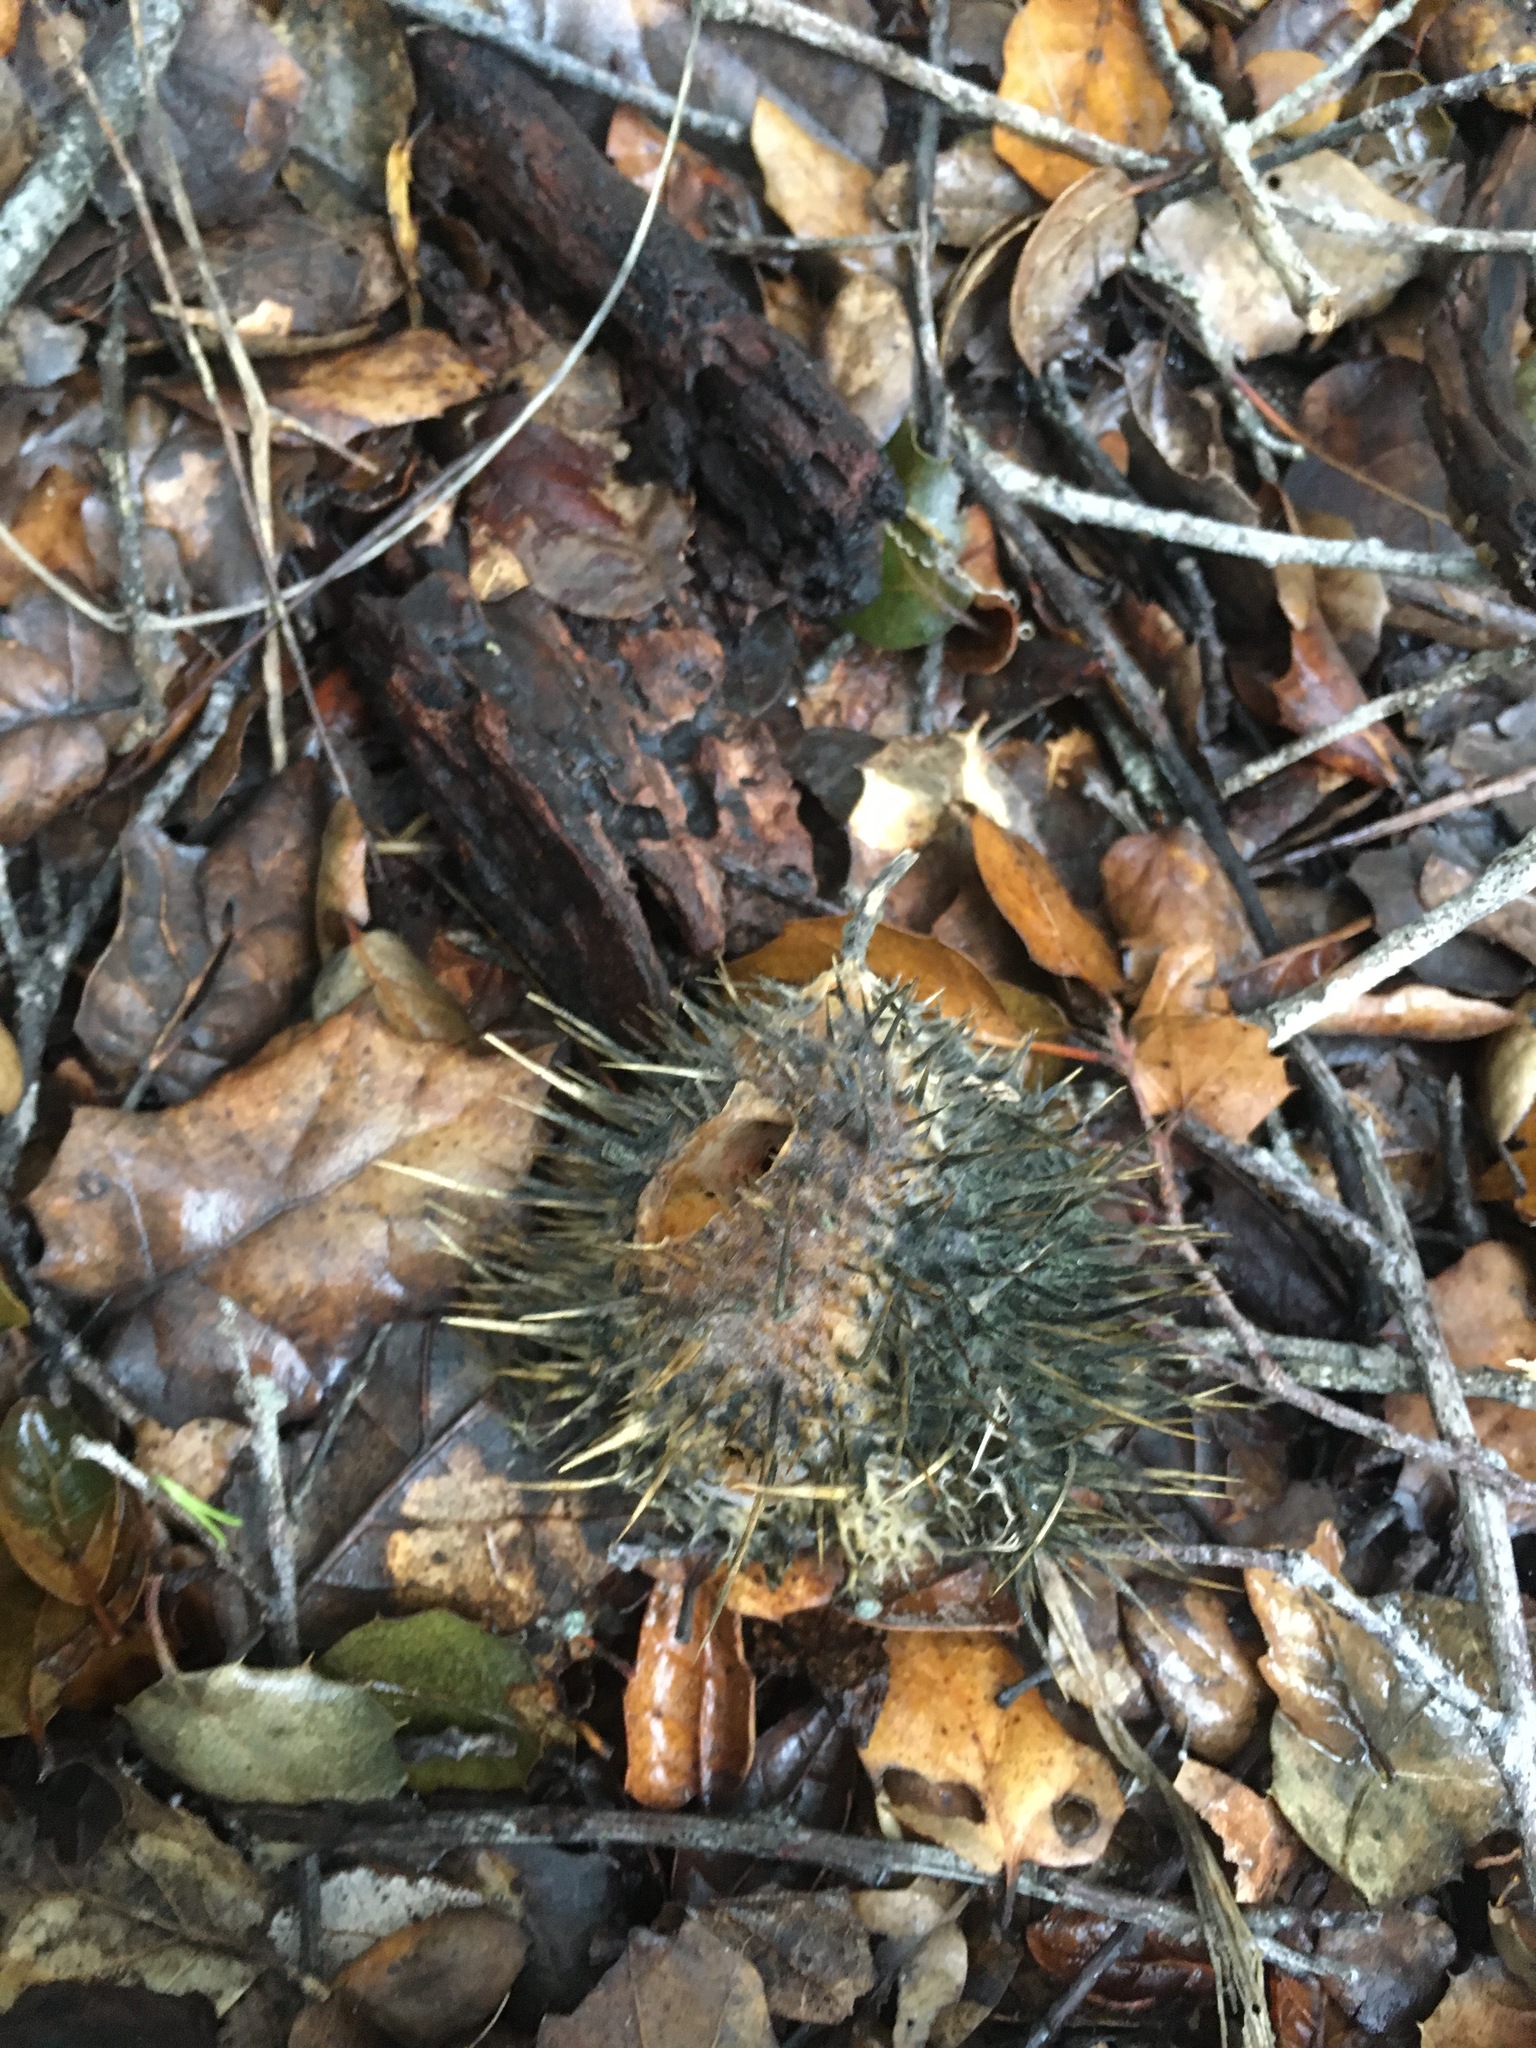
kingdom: Plantae
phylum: Tracheophyta
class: Magnoliopsida
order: Cucurbitales
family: Cucurbitaceae
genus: Marah
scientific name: Marah macrocarpa
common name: Cucamonga manroot
